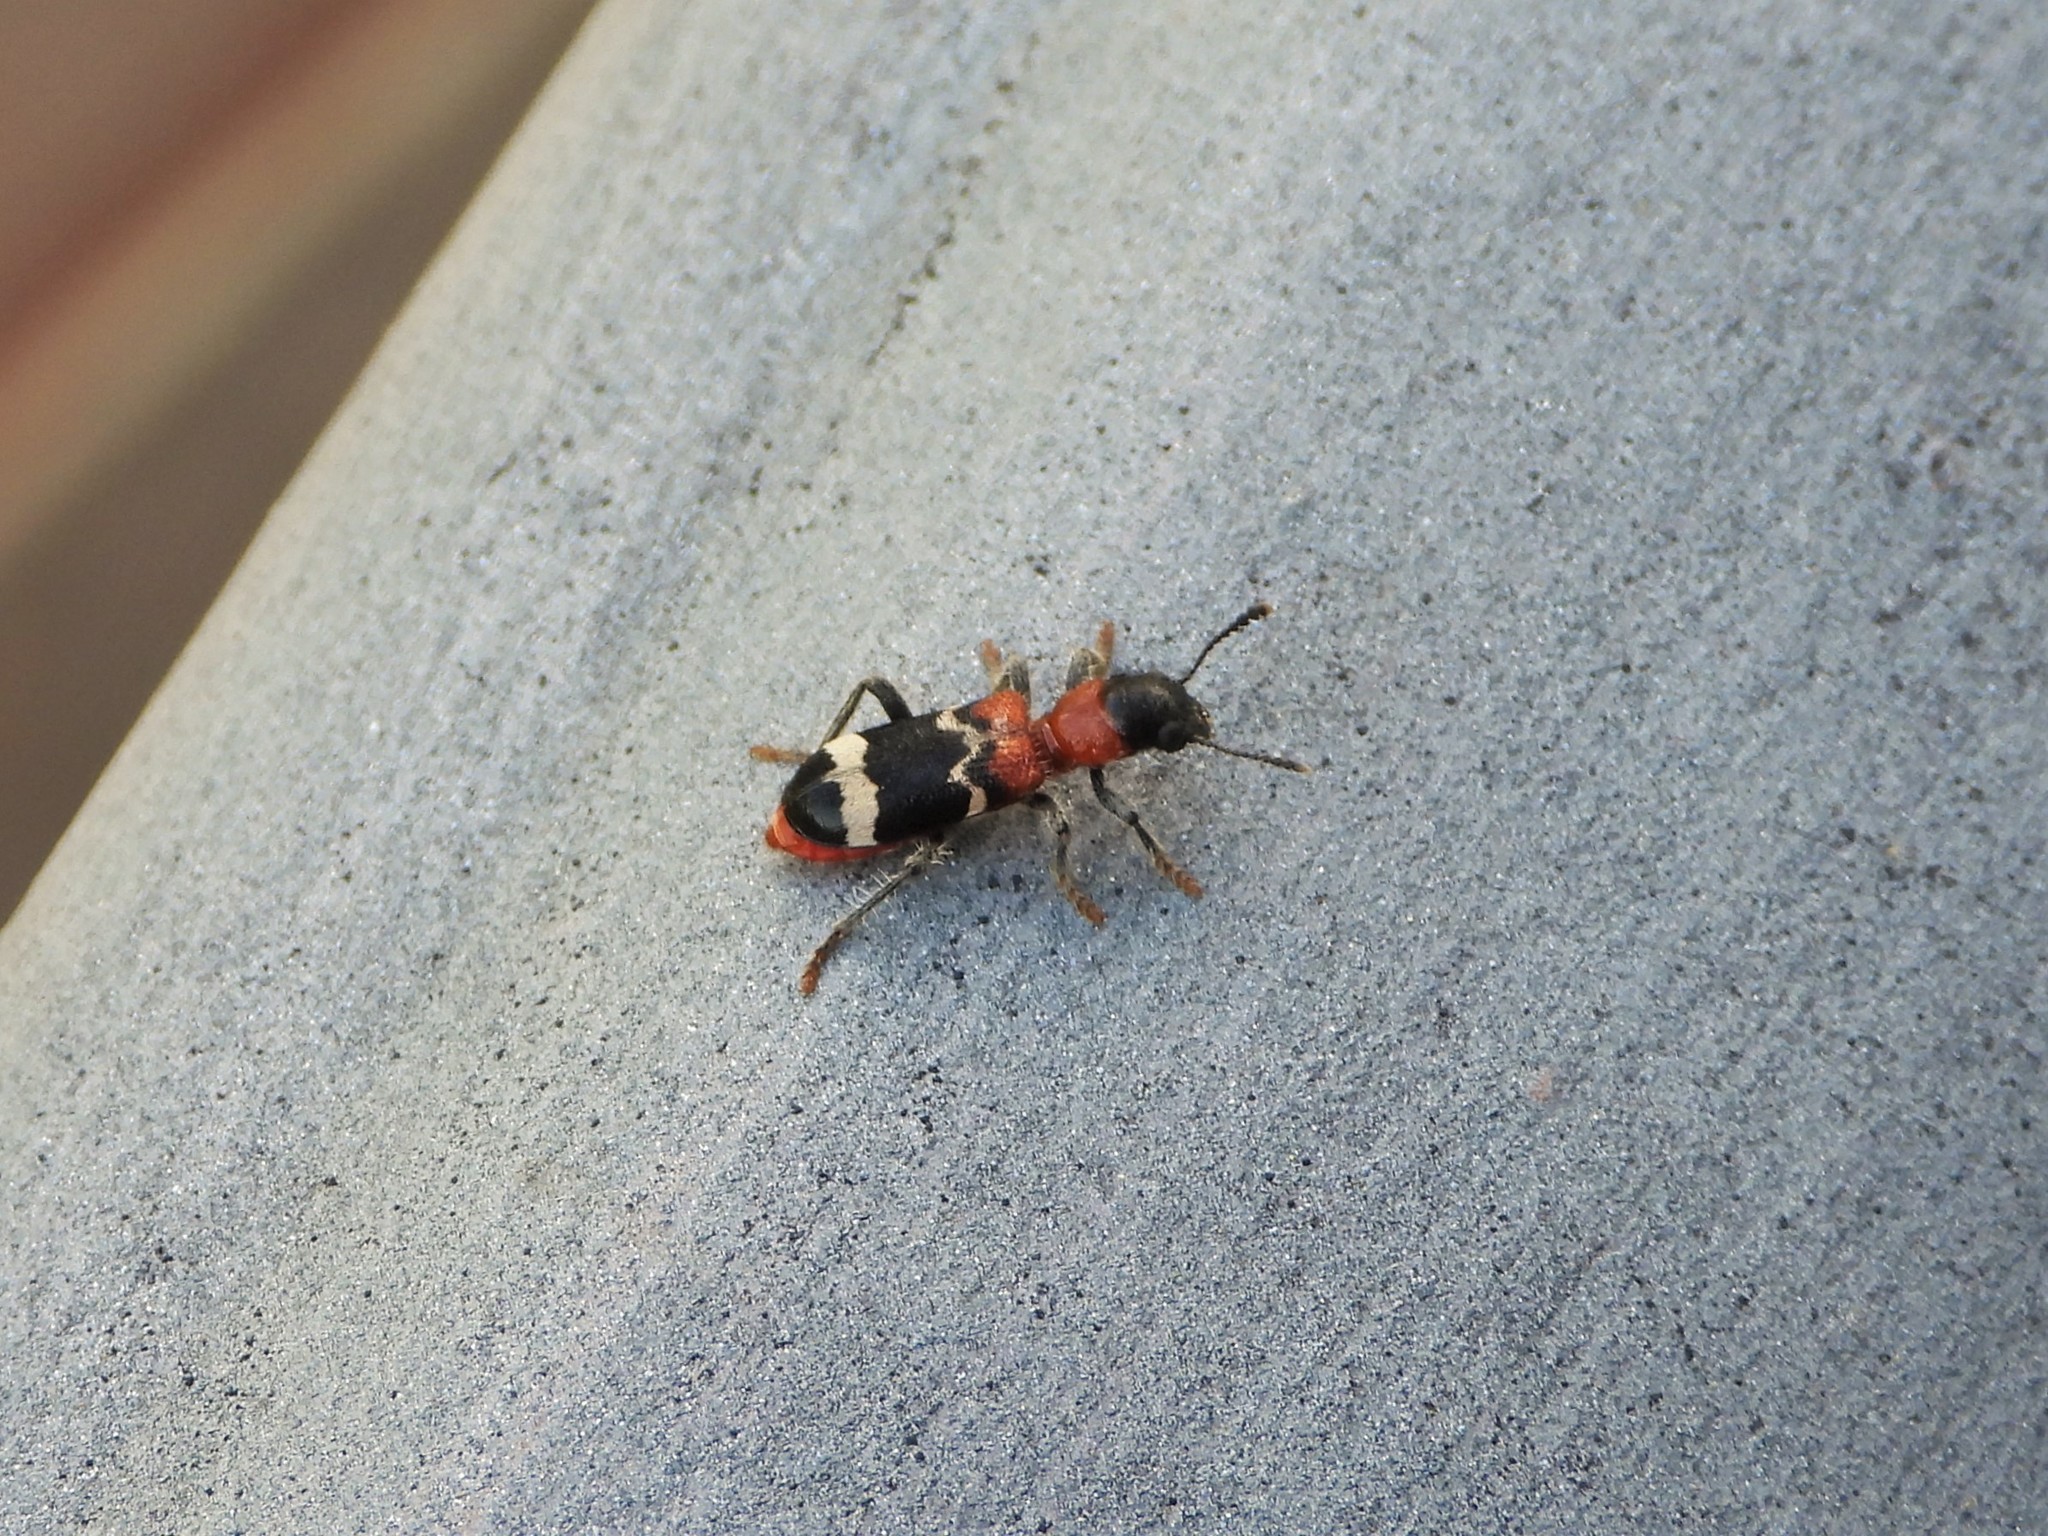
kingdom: Animalia
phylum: Arthropoda
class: Insecta
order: Coleoptera
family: Cleridae
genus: Thanasimus
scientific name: Thanasimus formicarius
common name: Ant beetle
